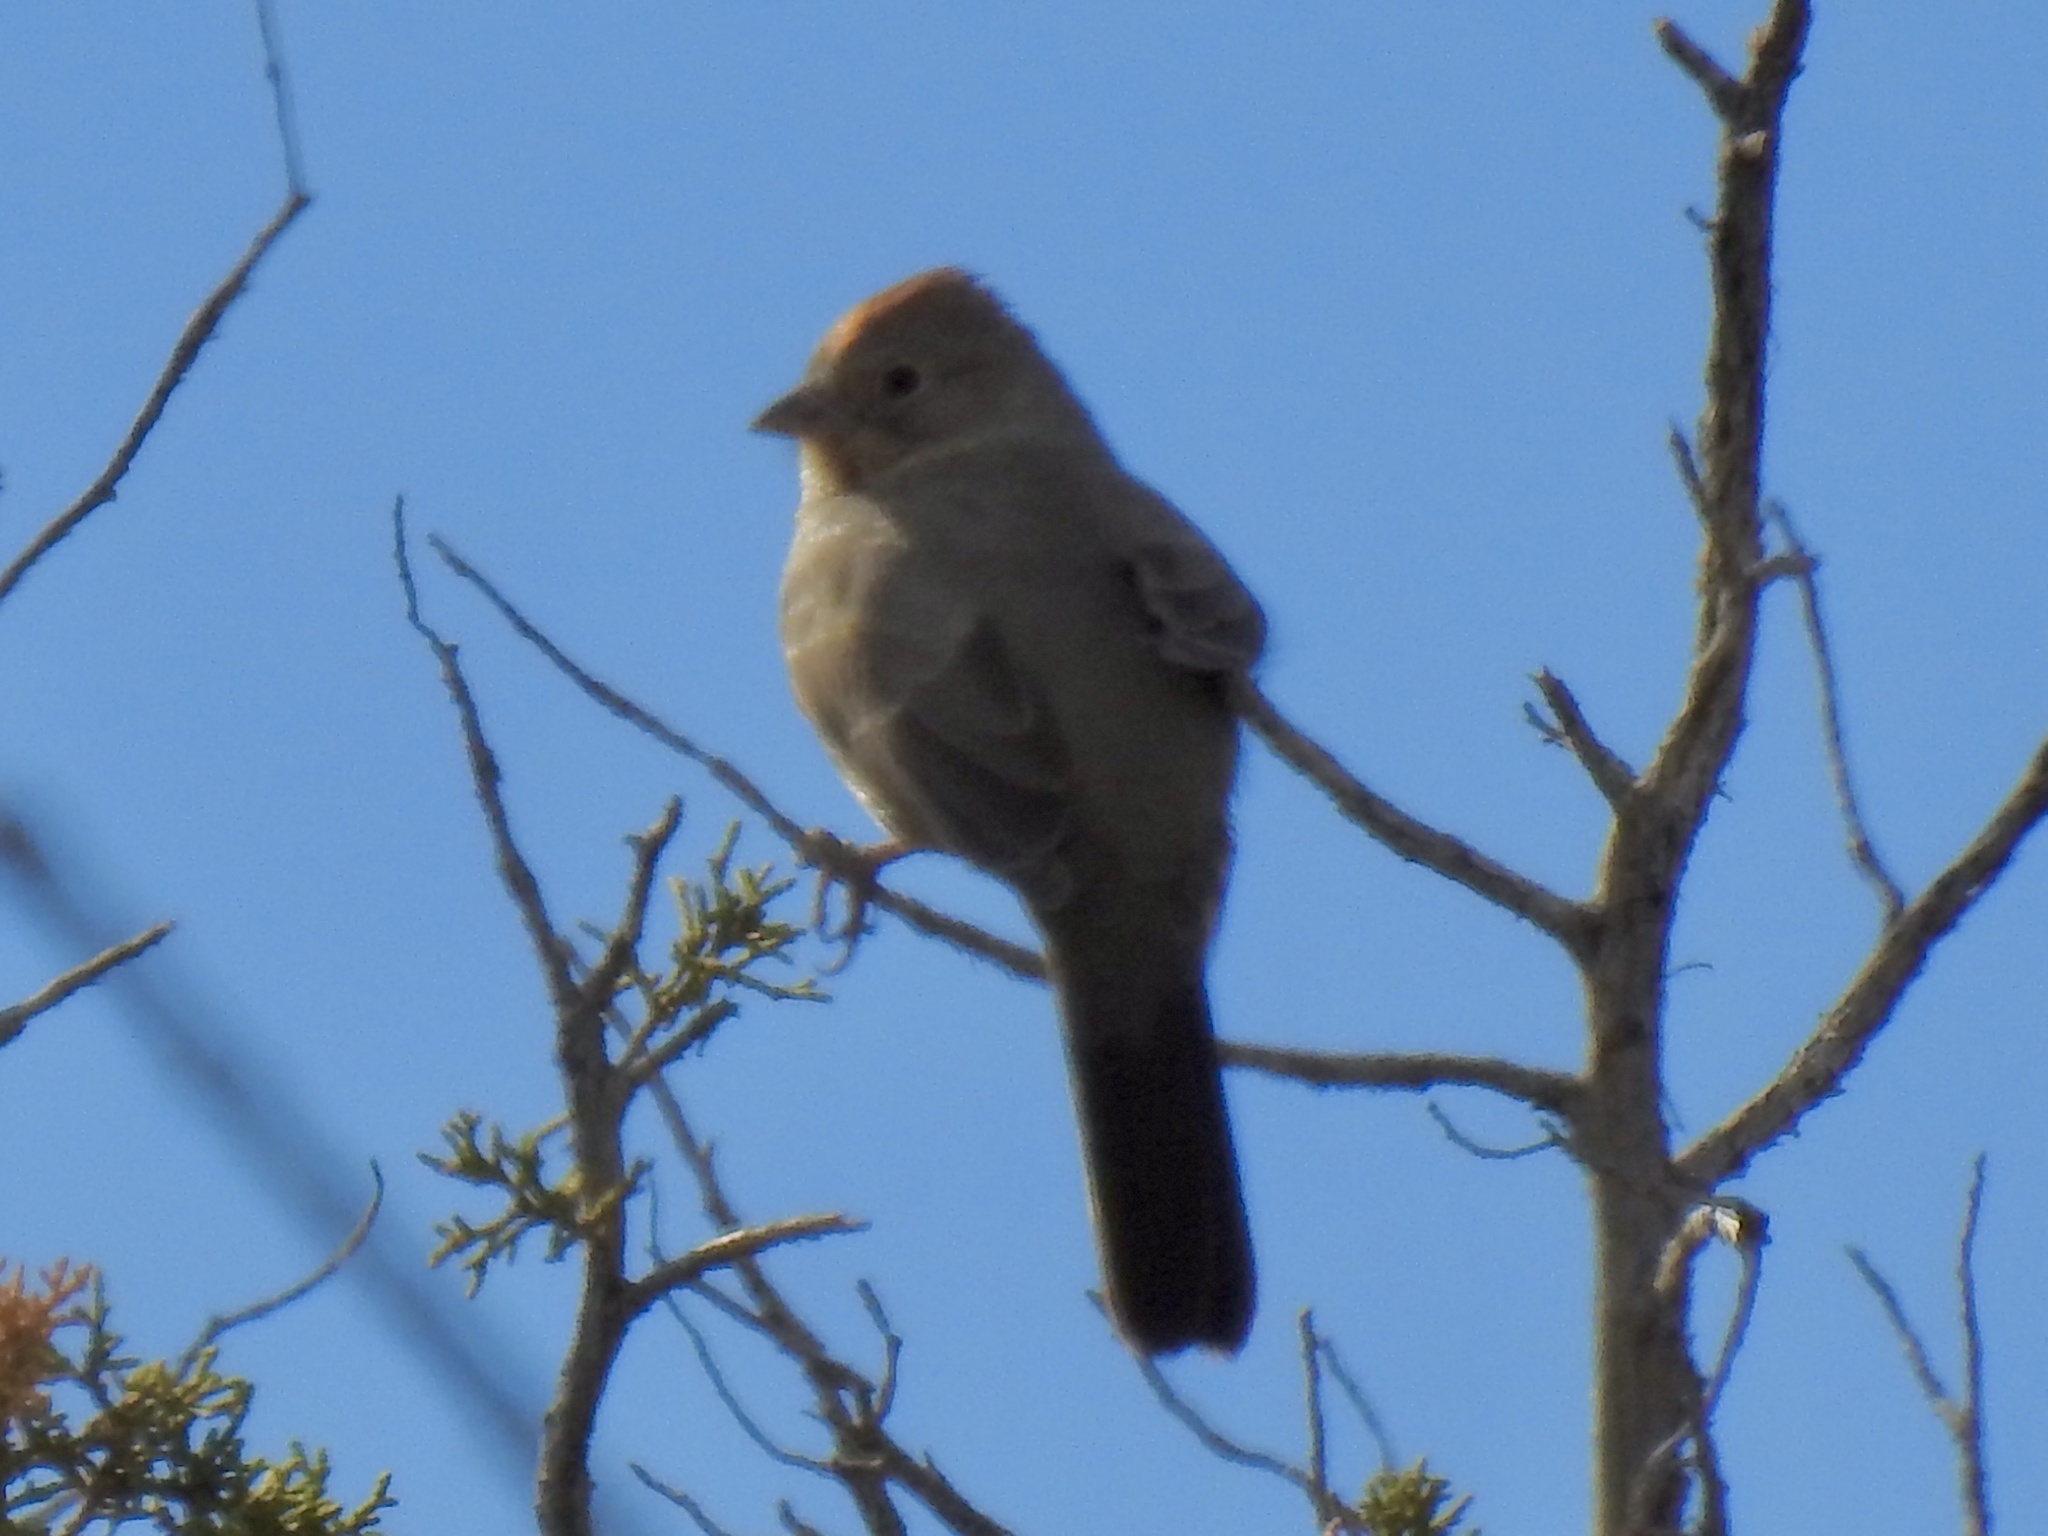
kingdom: Animalia
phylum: Chordata
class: Aves
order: Passeriformes
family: Passerellidae
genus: Melozone
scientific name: Melozone fusca
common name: Canyon towhee
